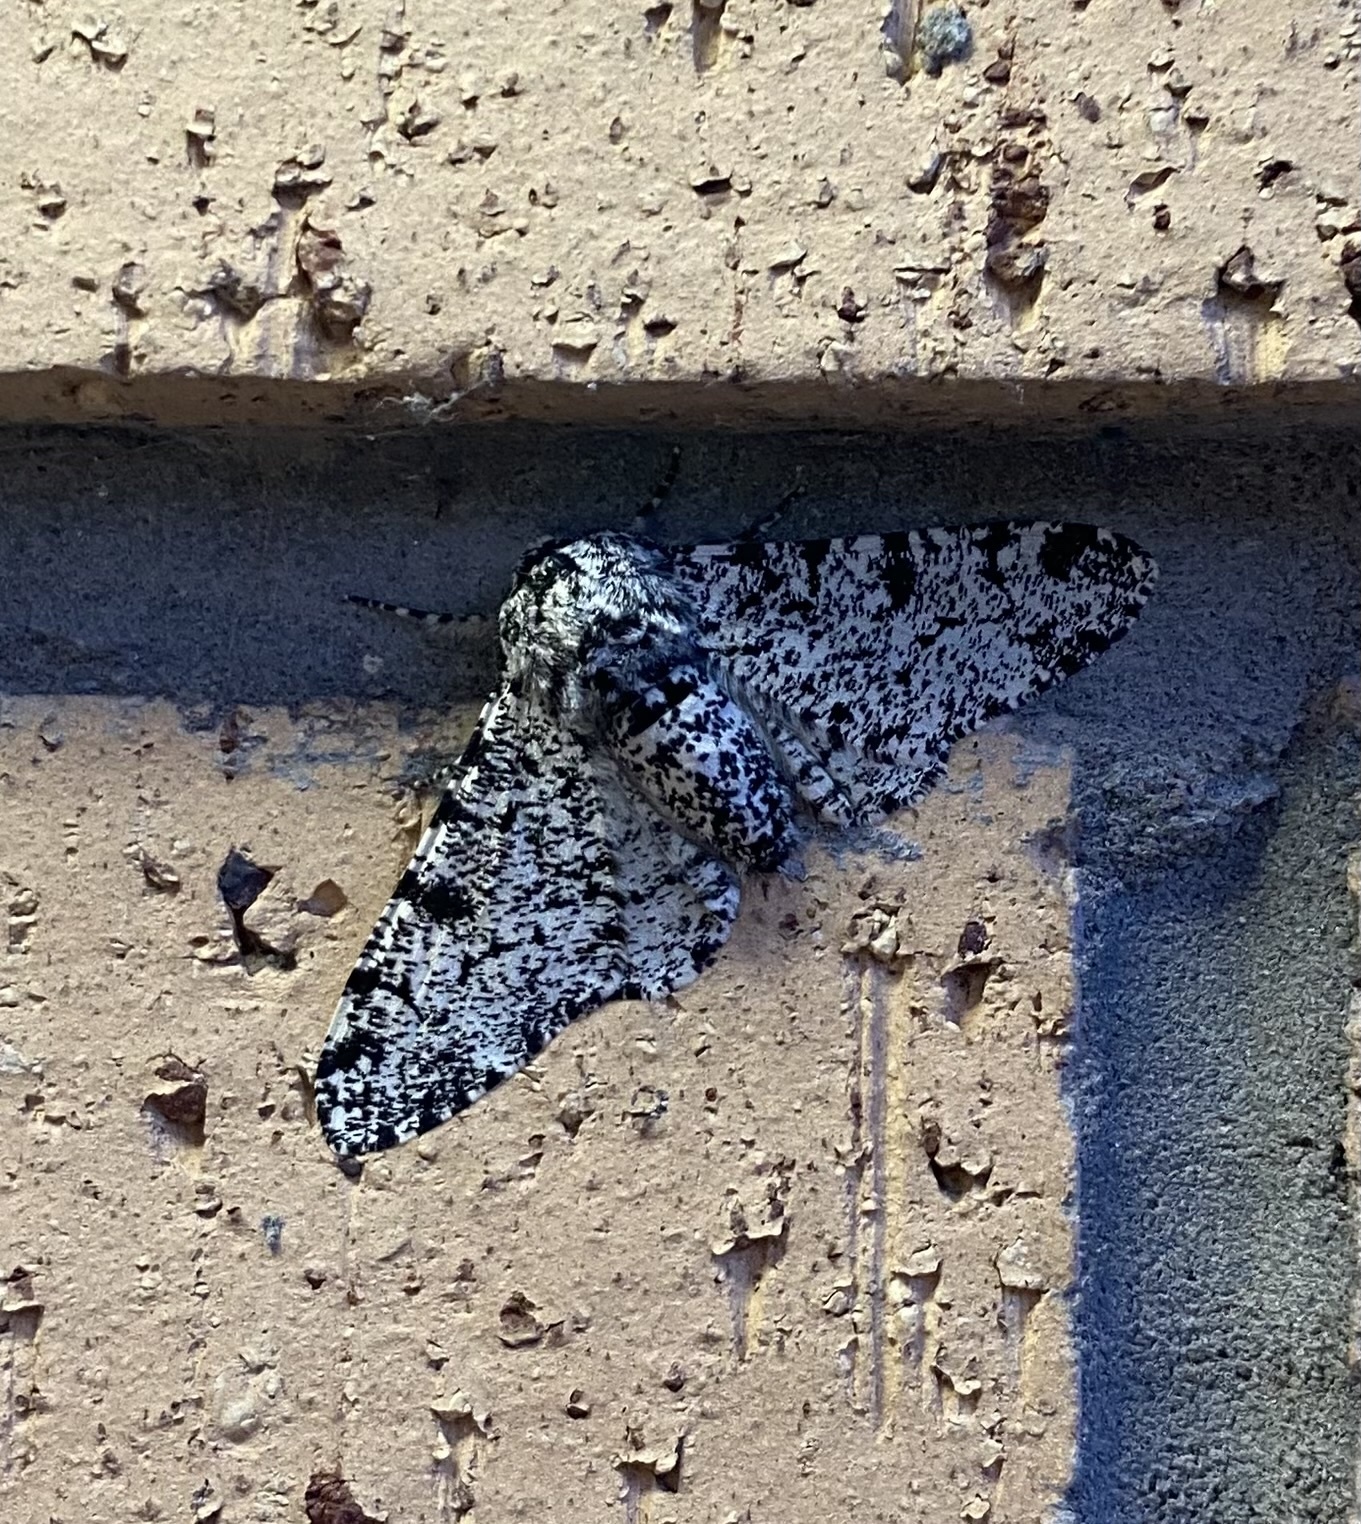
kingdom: Animalia
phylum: Arthropoda
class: Insecta
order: Lepidoptera
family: Geometridae
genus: Biston
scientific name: Biston betularia
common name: Peppered moth
